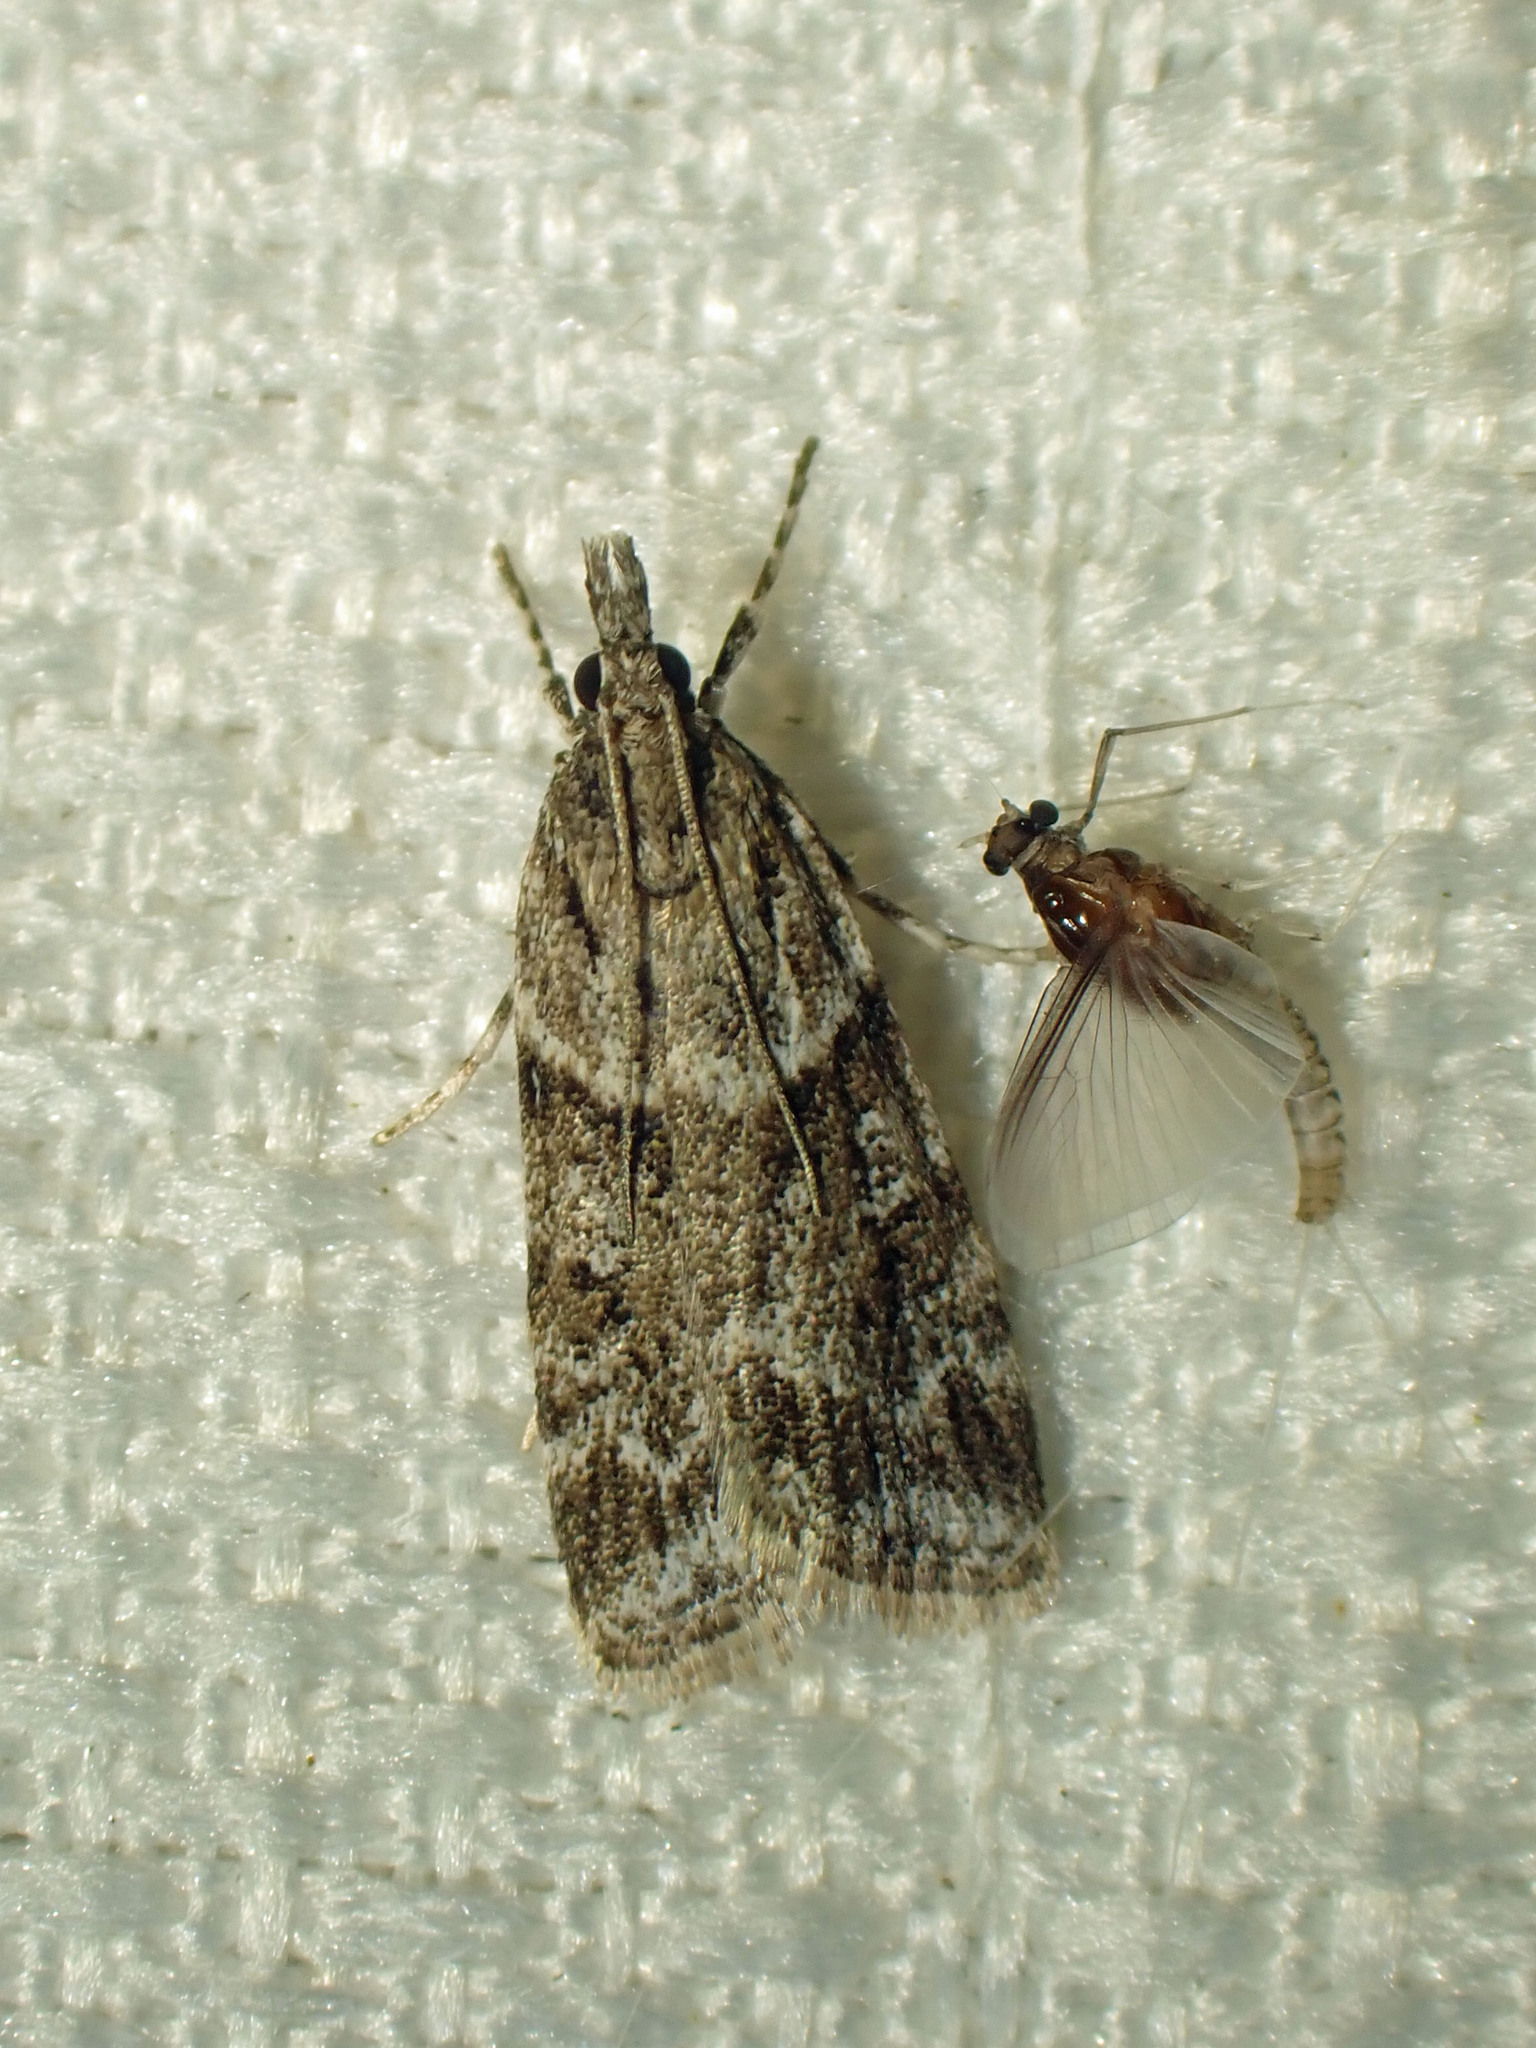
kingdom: Animalia
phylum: Arthropoda
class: Insecta
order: Lepidoptera
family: Crambidae
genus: Scoparia
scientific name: Scoparia biplagialis
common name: Double-striped scoparia moth
